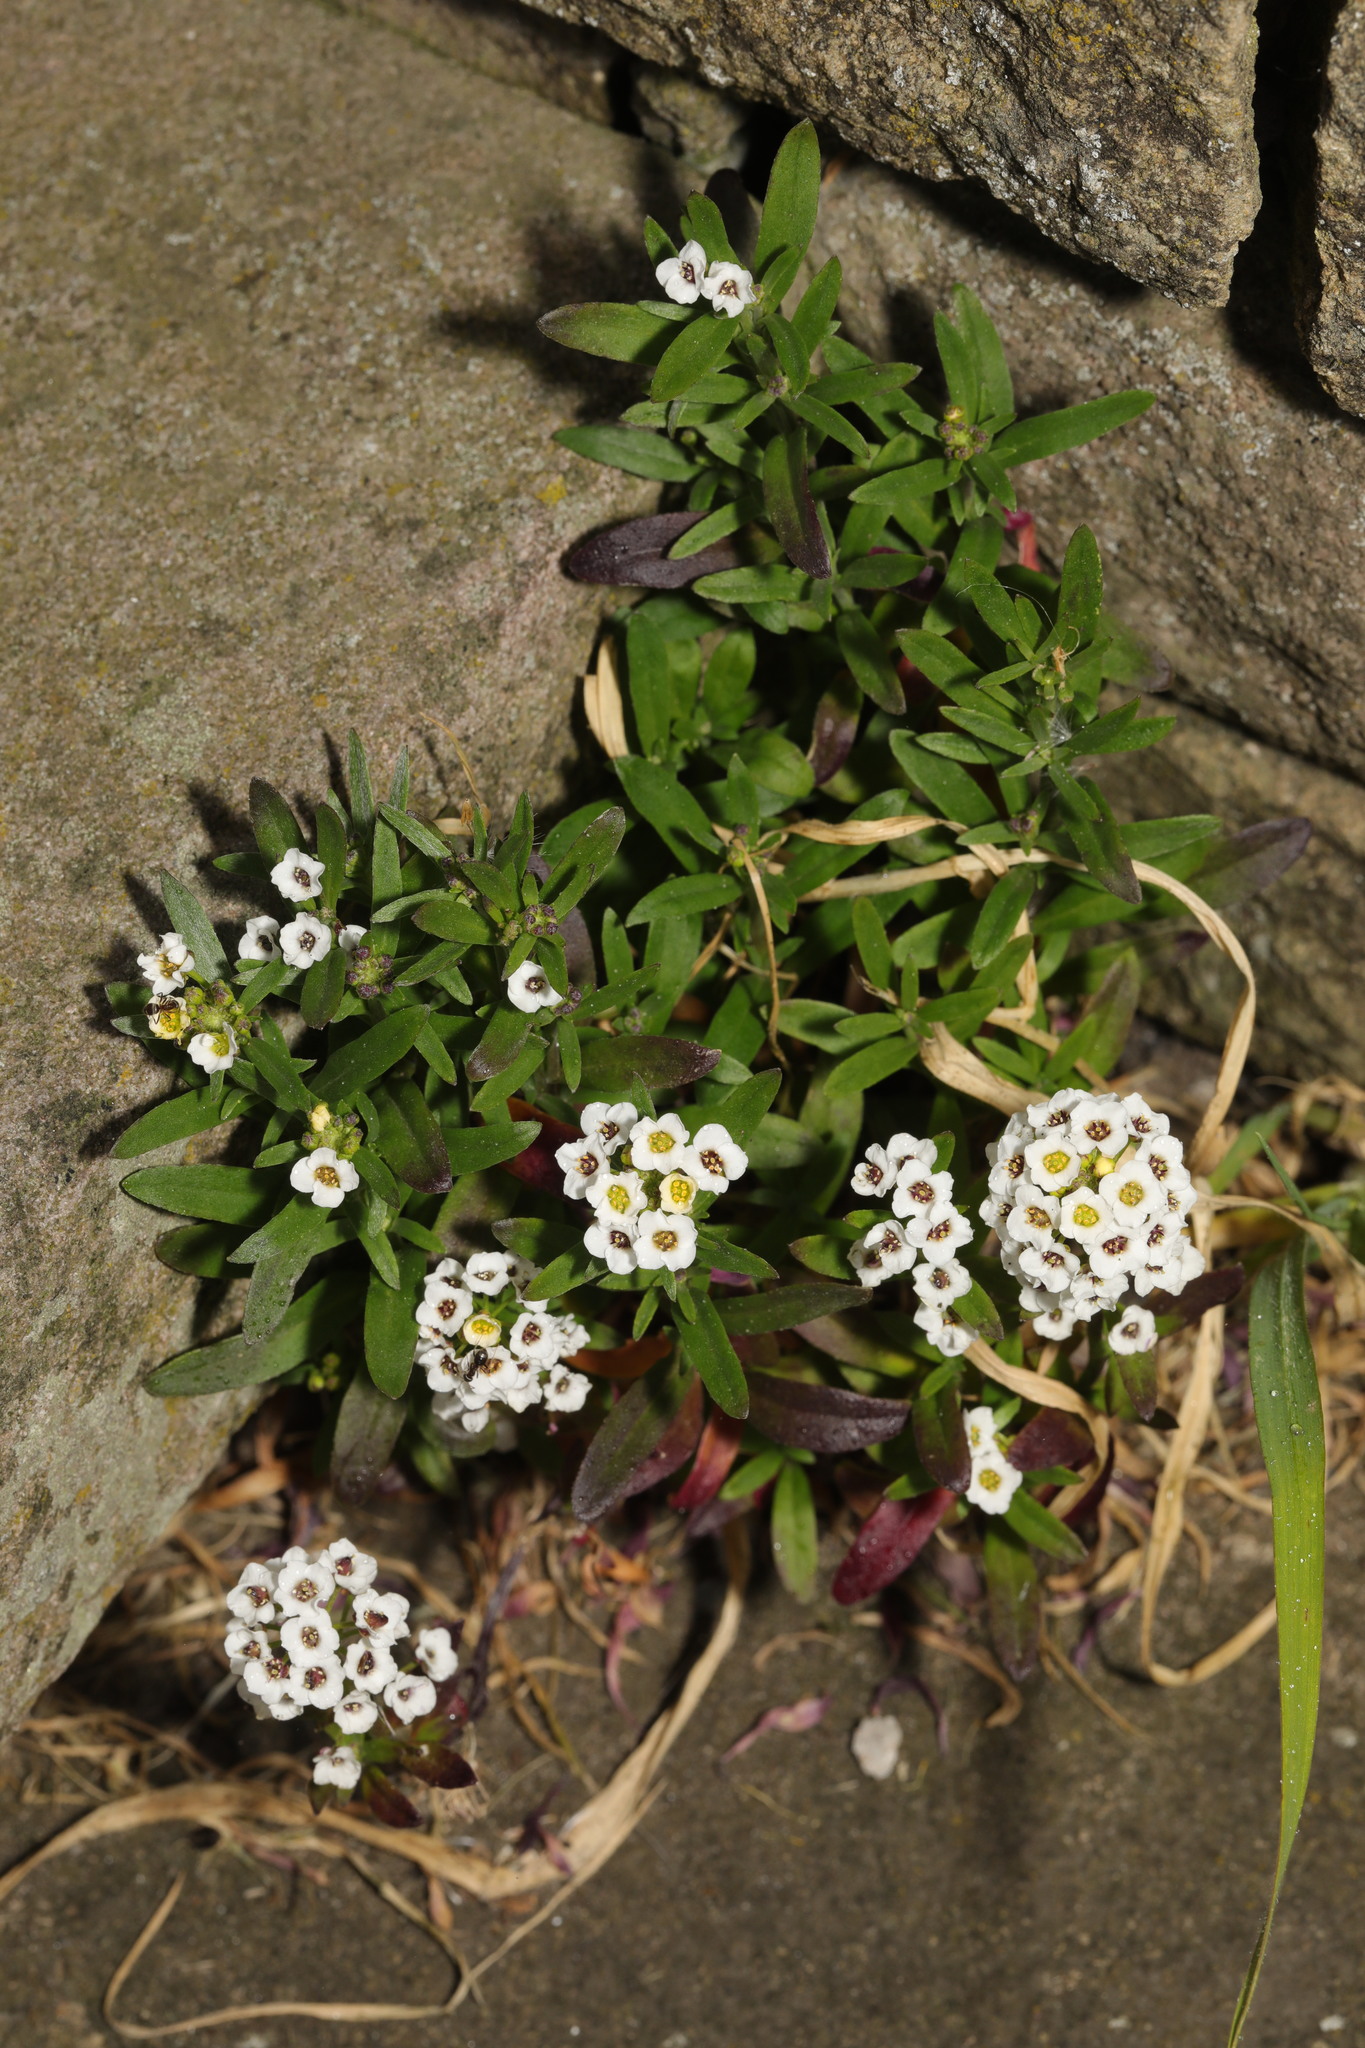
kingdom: Plantae
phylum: Tracheophyta
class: Magnoliopsida
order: Brassicales
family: Brassicaceae
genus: Lobularia
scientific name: Lobularia maritima
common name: Sweet alison
